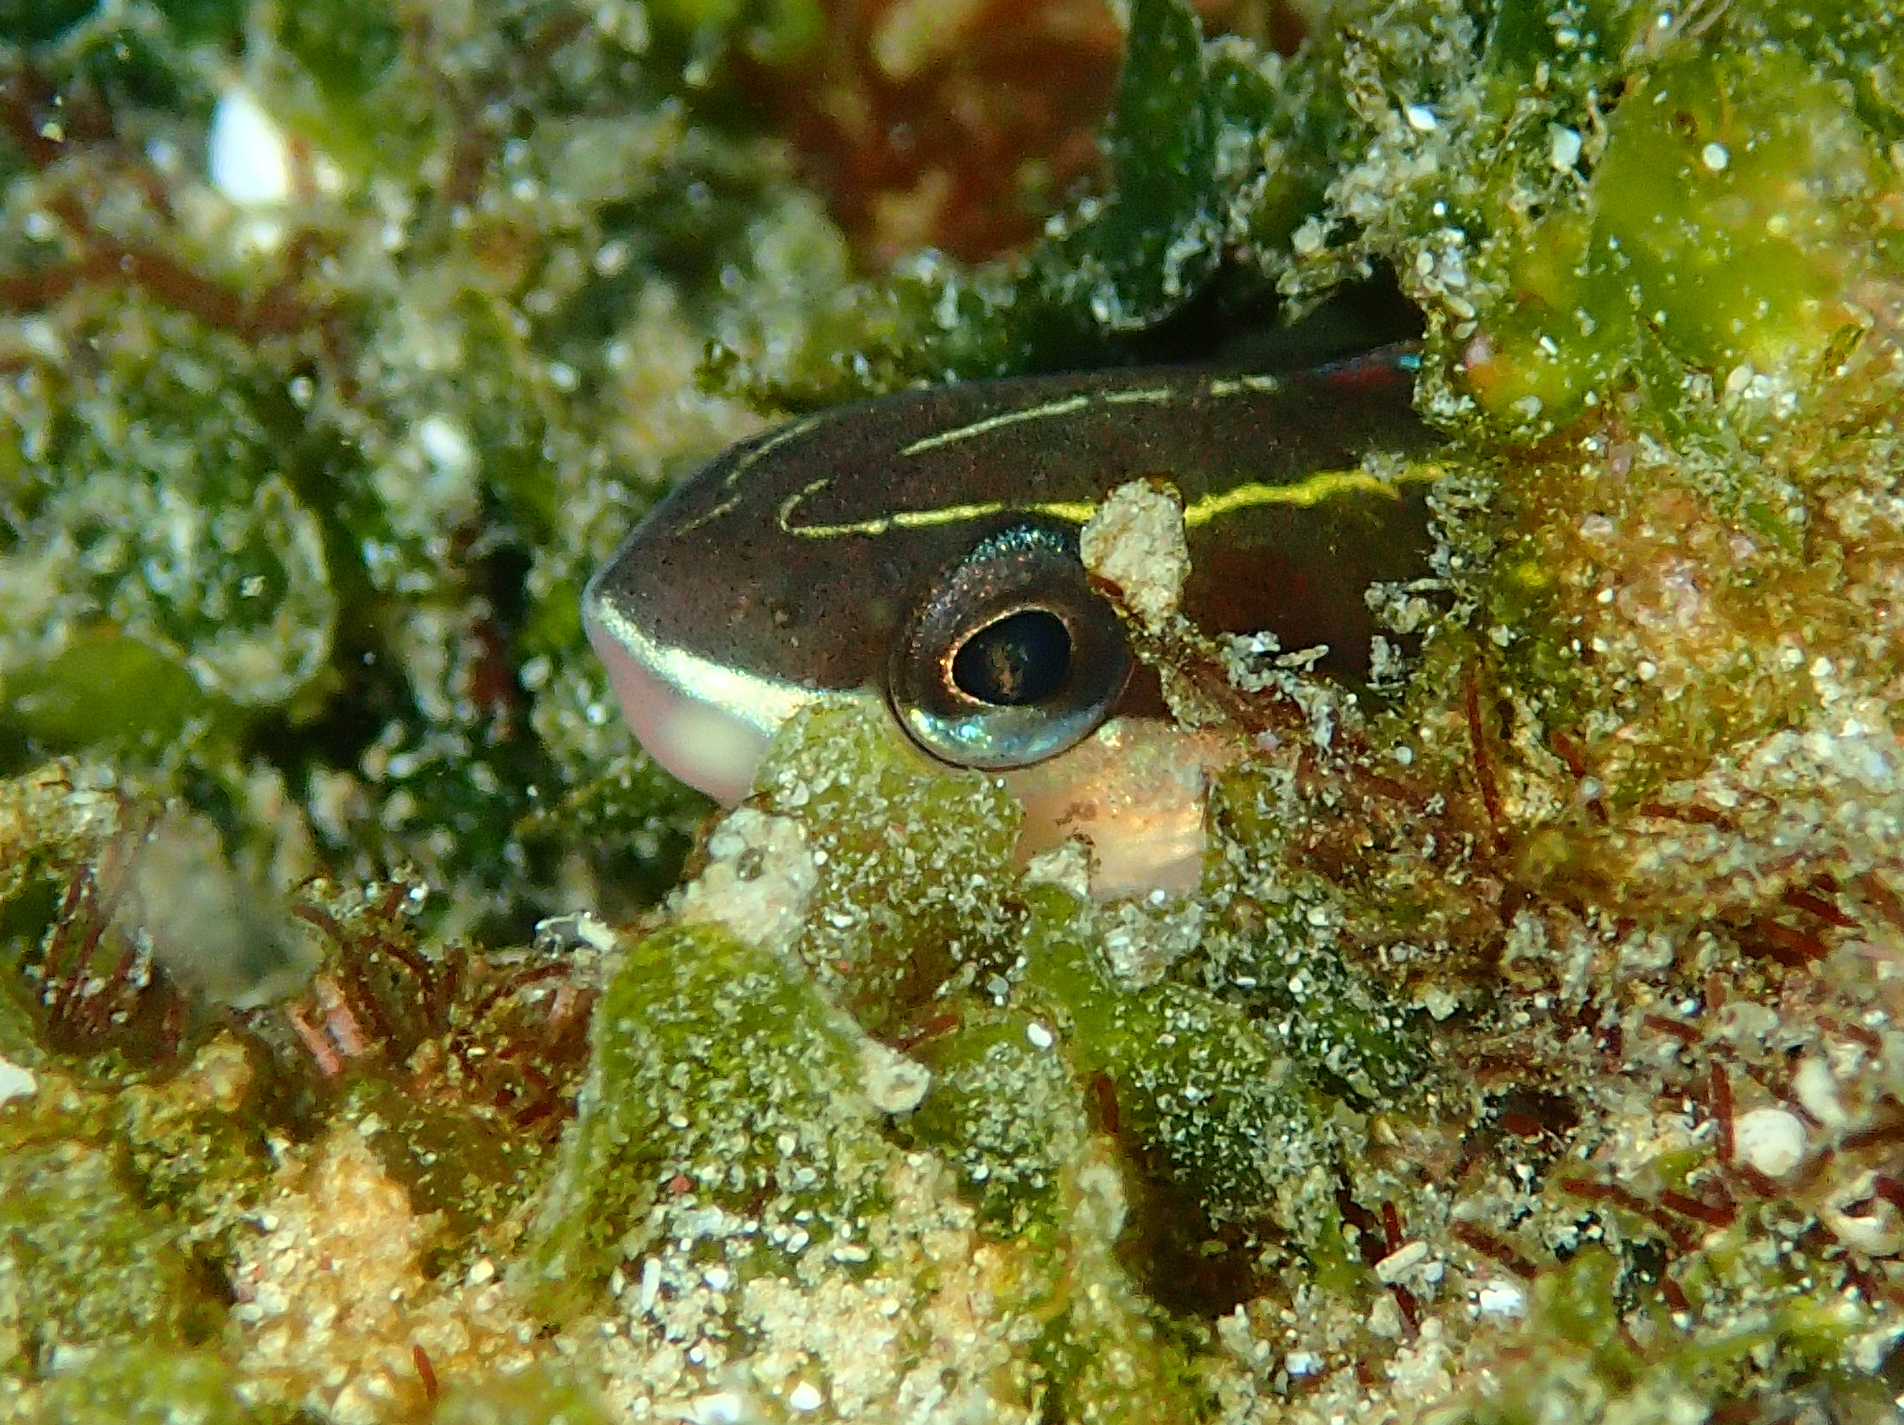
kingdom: Animalia
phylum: Chordata
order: Perciformes
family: Blenniidae
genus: Plagiotremus
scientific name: Plagiotremus azaleus
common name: Sabertooth blenny
